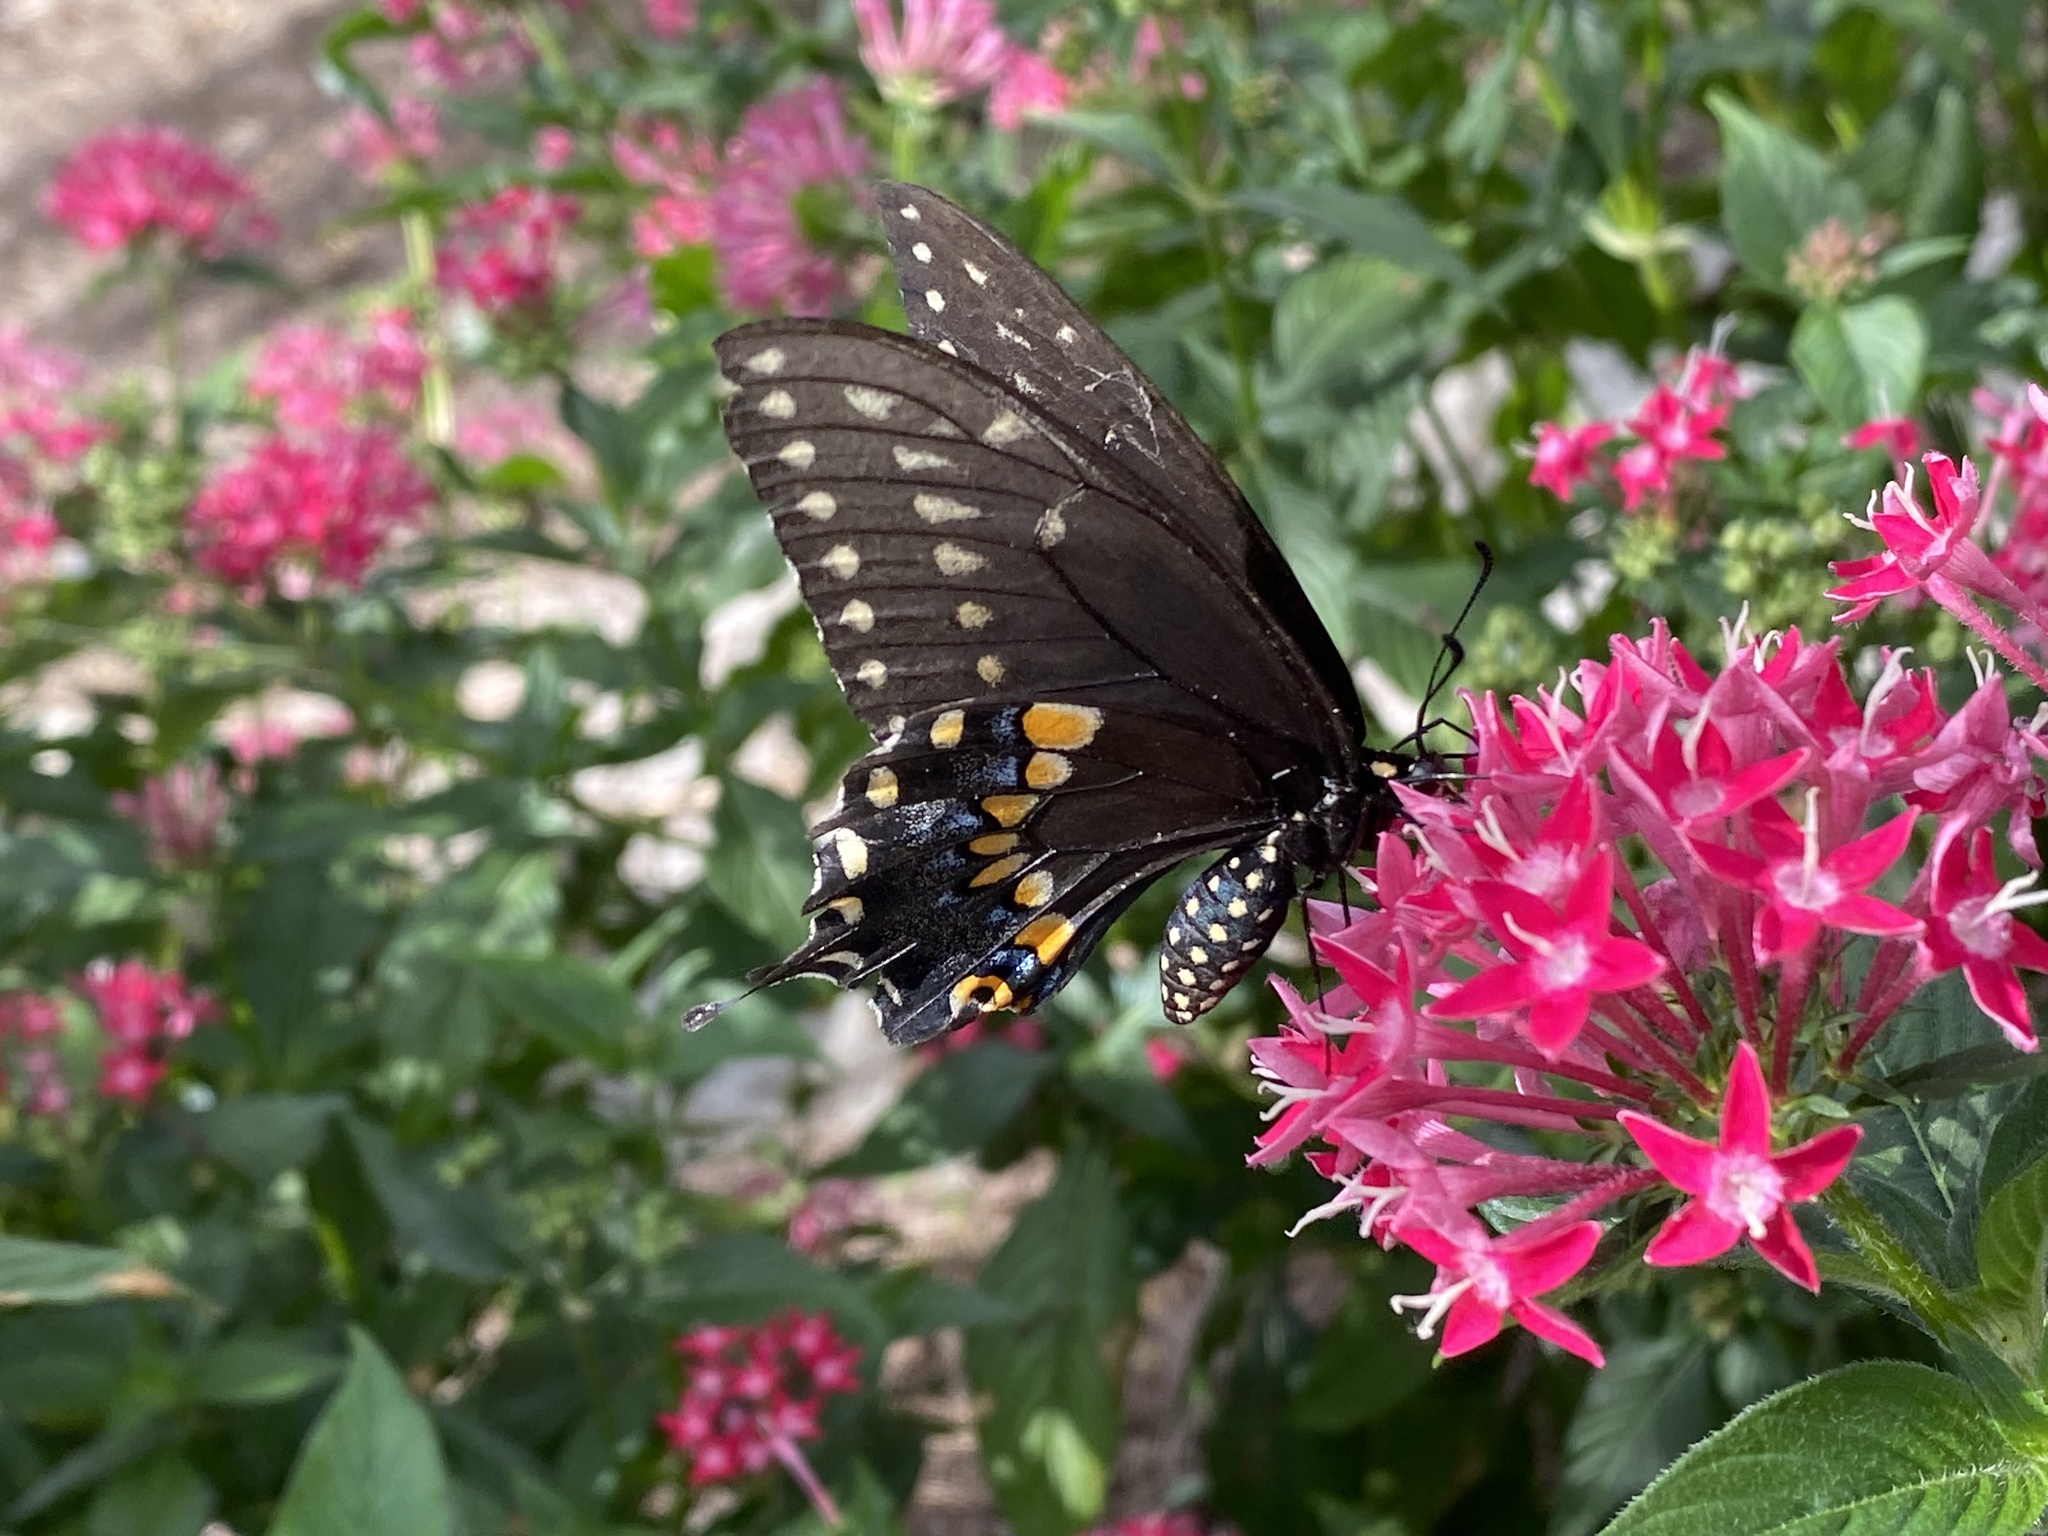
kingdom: Animalia
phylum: Arthropoda
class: Insecta
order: Lepidoptera
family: Papilionidae
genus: Papilio
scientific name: Papilio polyxenes
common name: Black swallowtail
